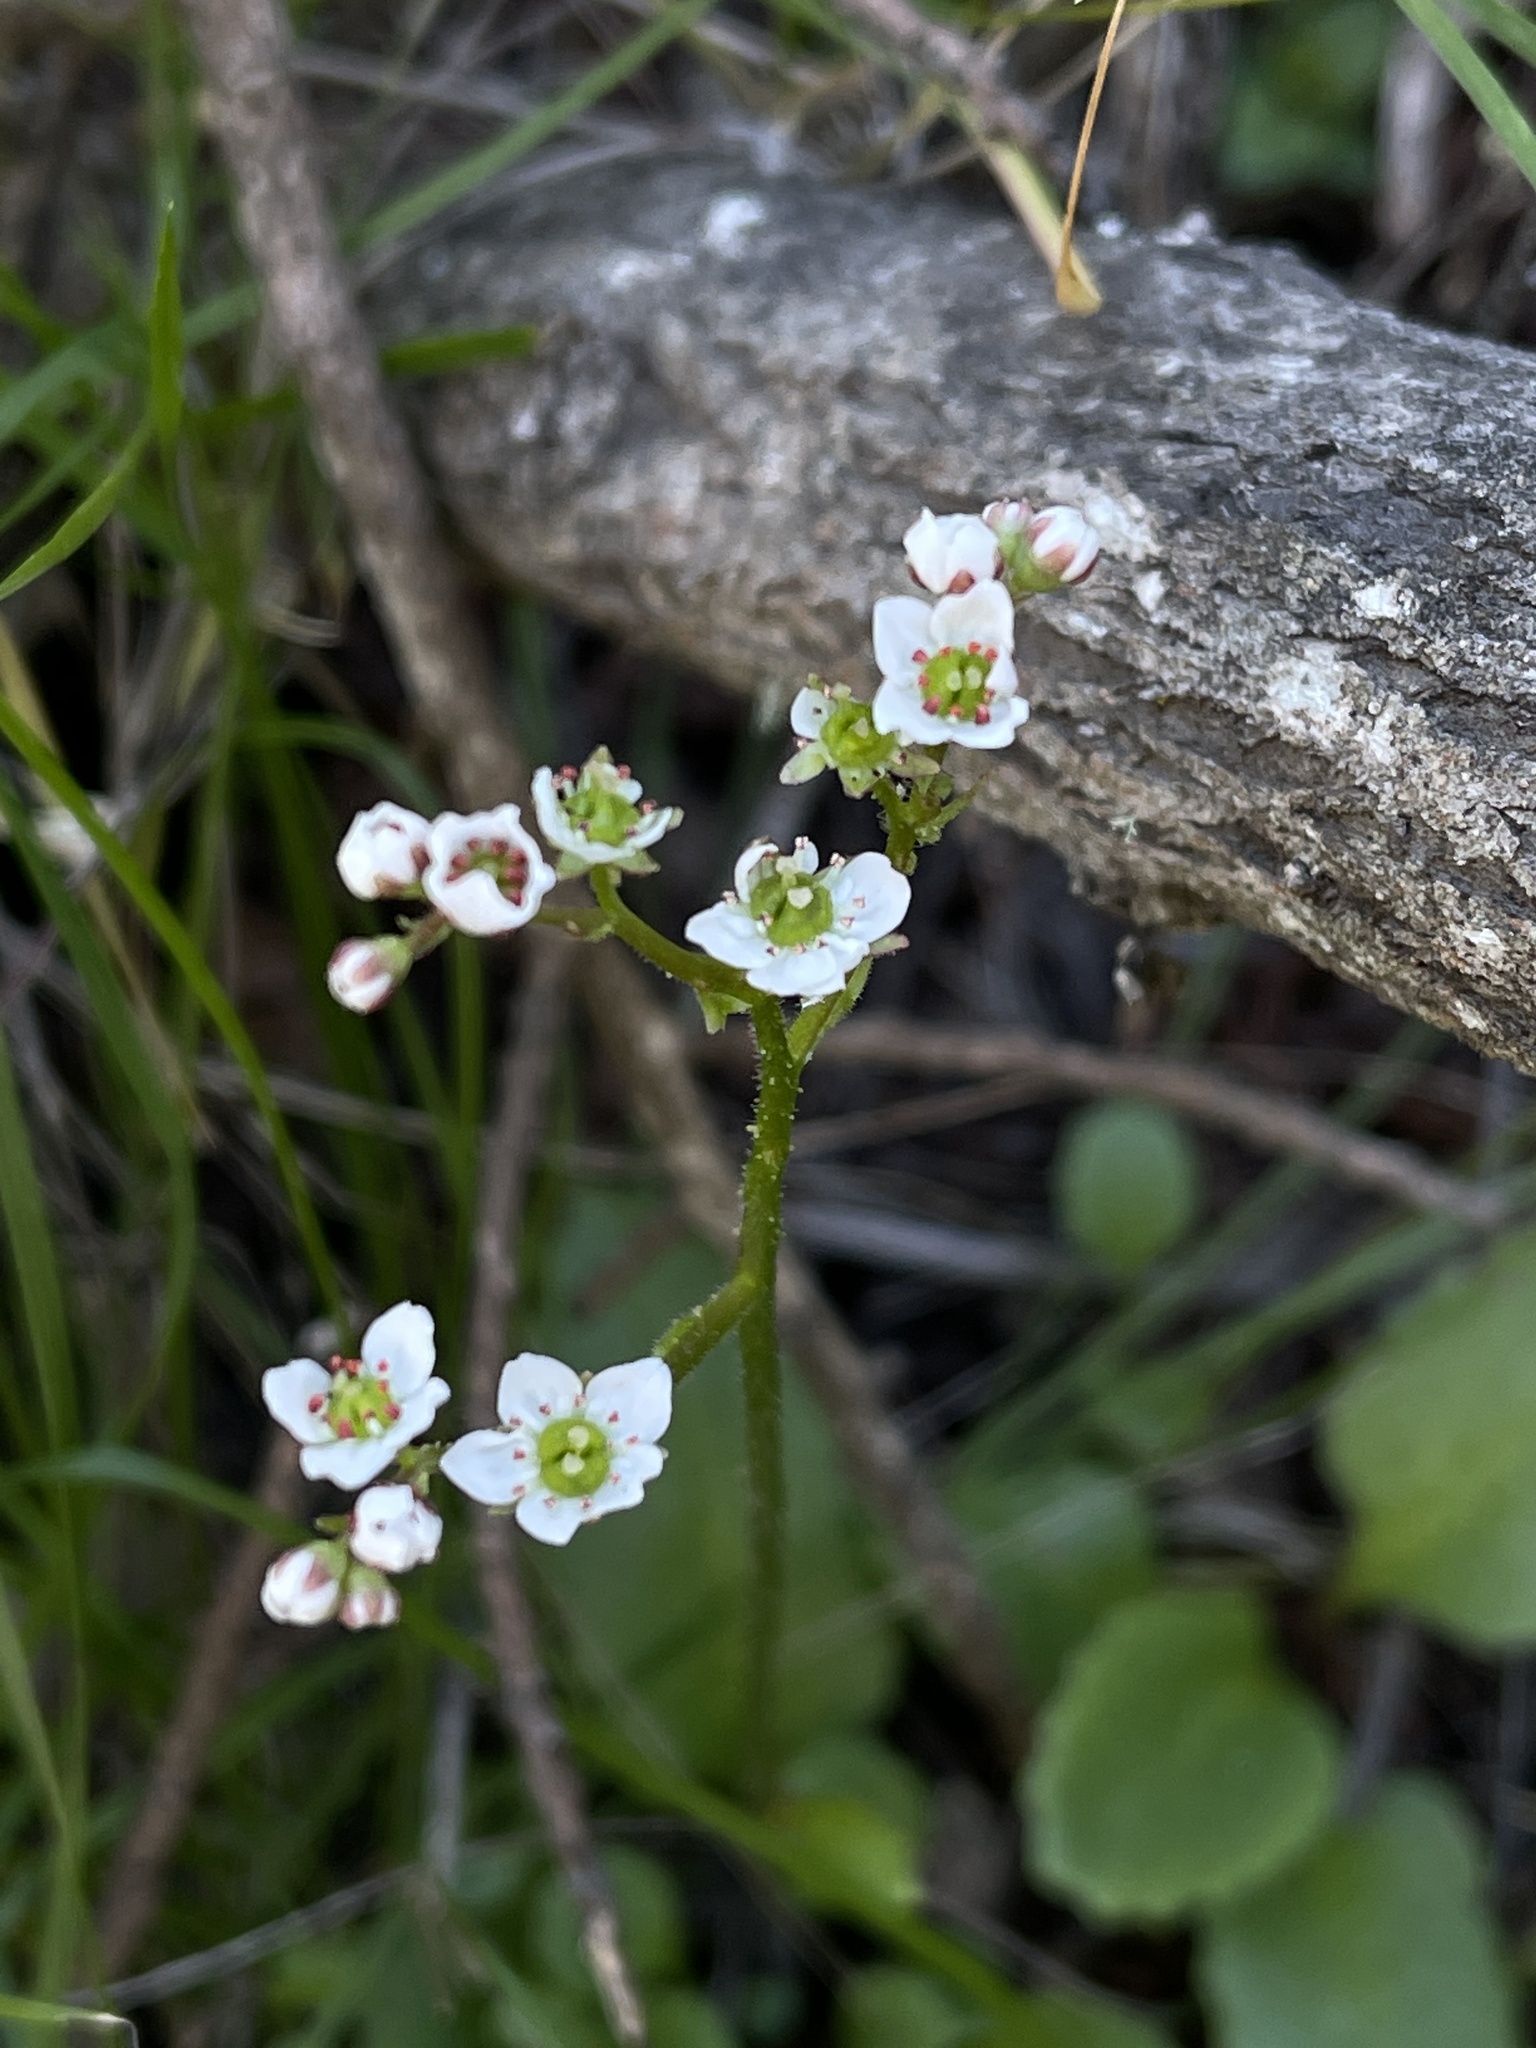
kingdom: Plantae
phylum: Tracheophyta
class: Magnoliopsida
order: Saxifragales
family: Saxifragaceae
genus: Micranthes
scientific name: Micranthes californica
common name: California saxifrage
